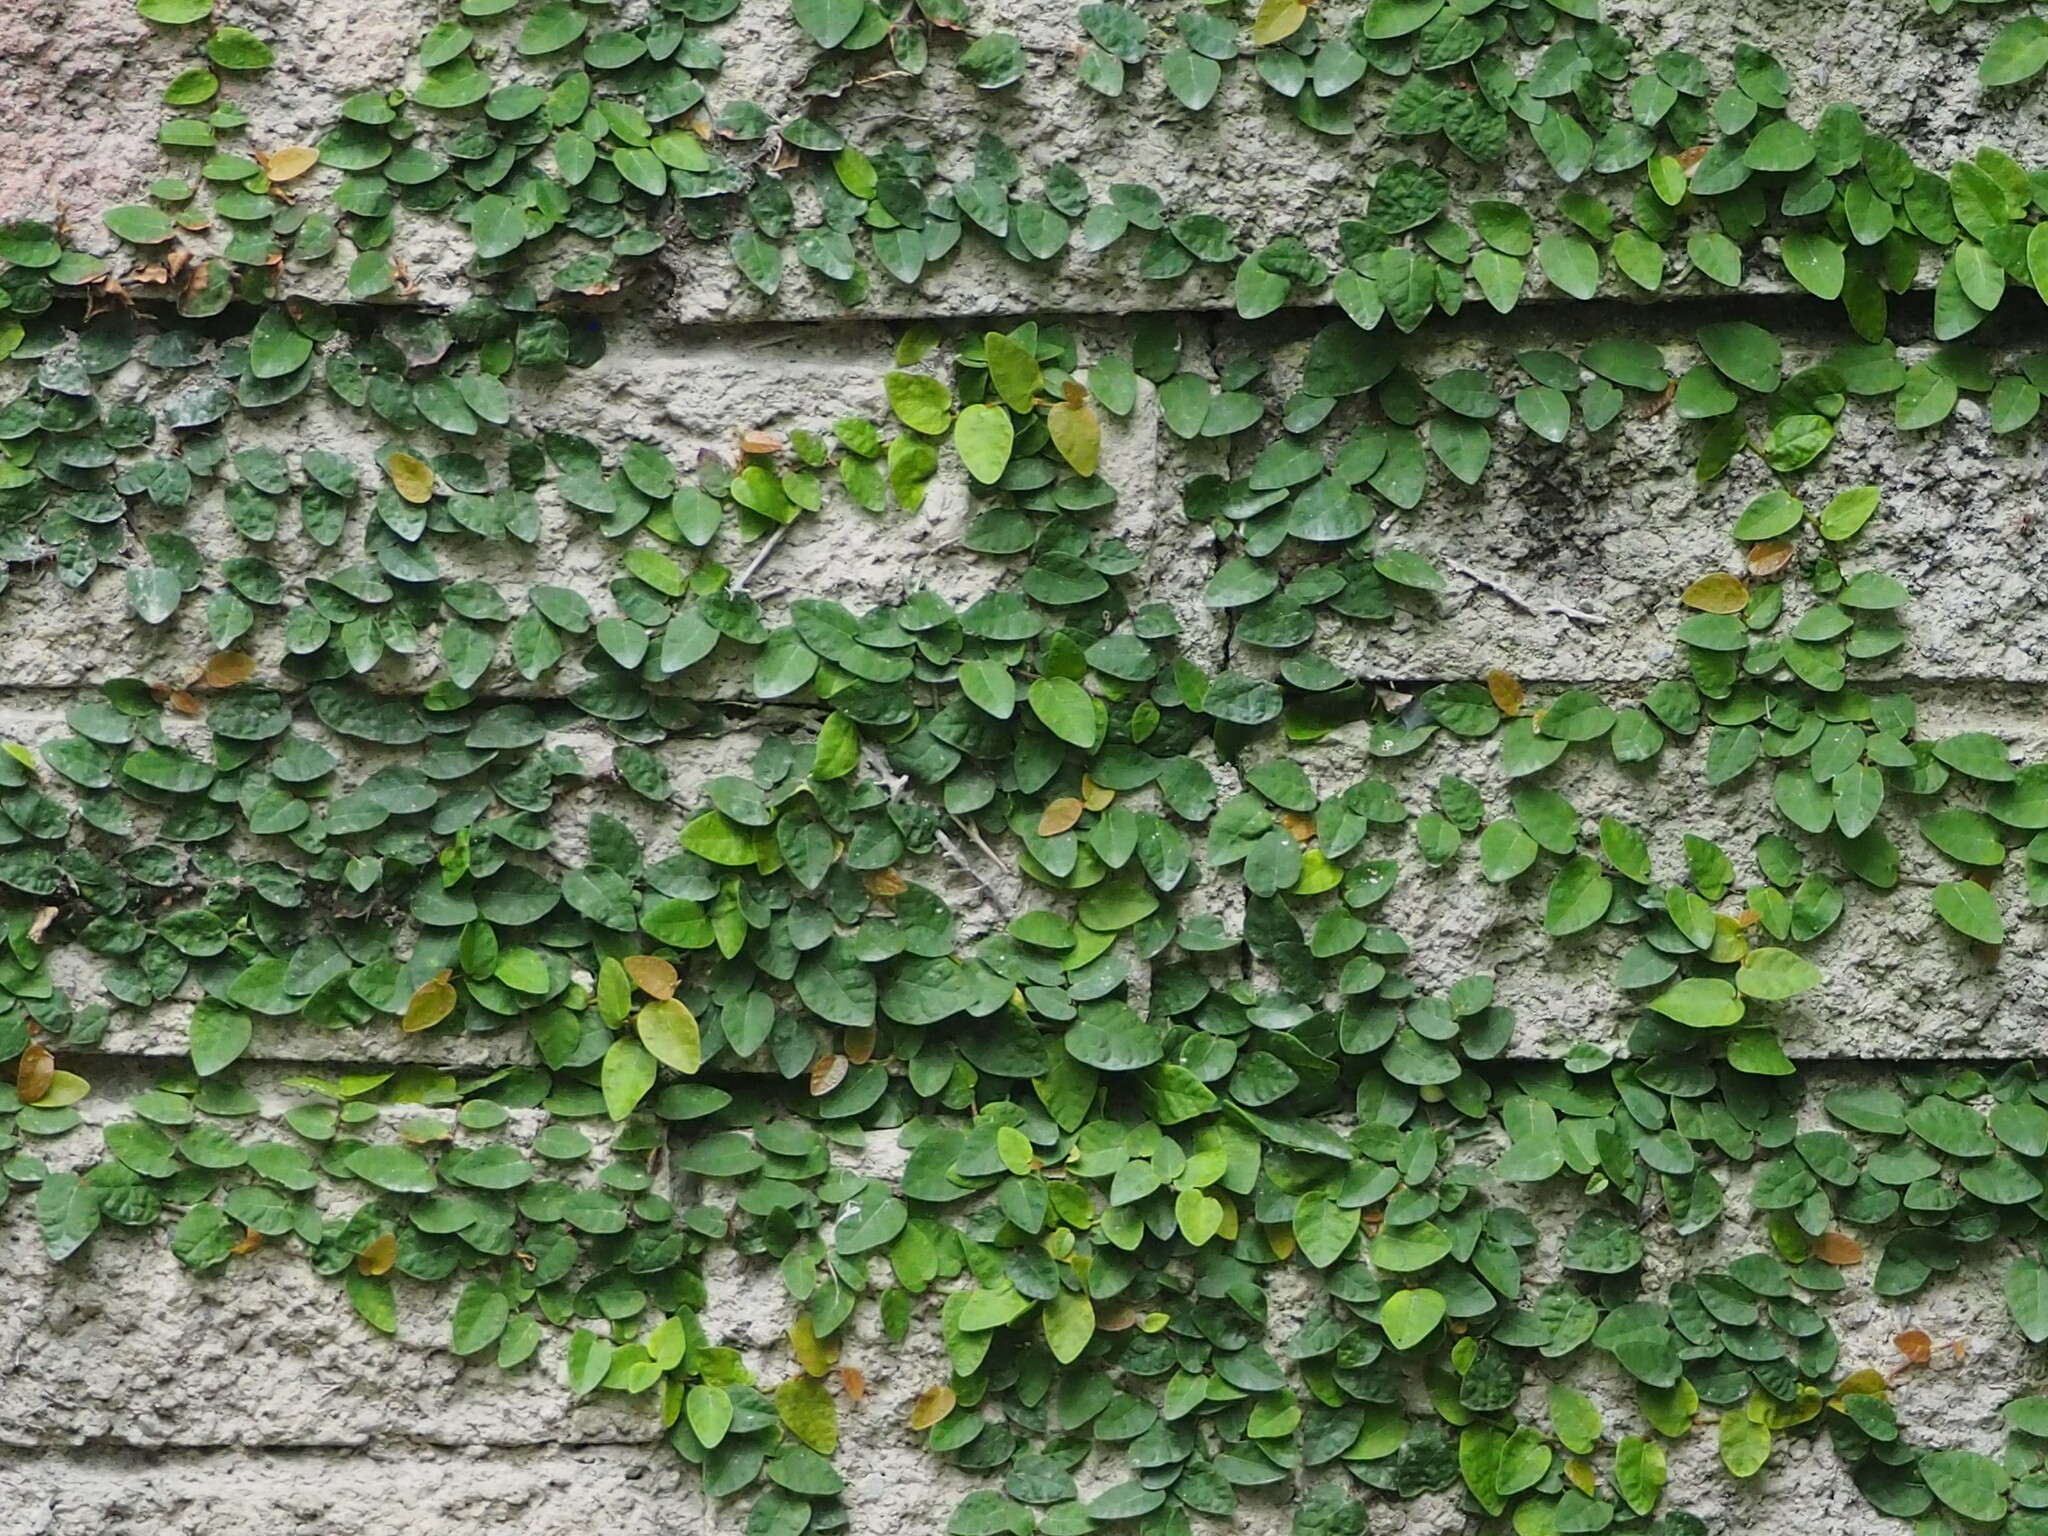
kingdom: Plantae
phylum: Tracheophyta
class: Magnoliopsida
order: Rosales
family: Moraceae
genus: Ficus
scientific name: Ficus pumila
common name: Climbingfig
